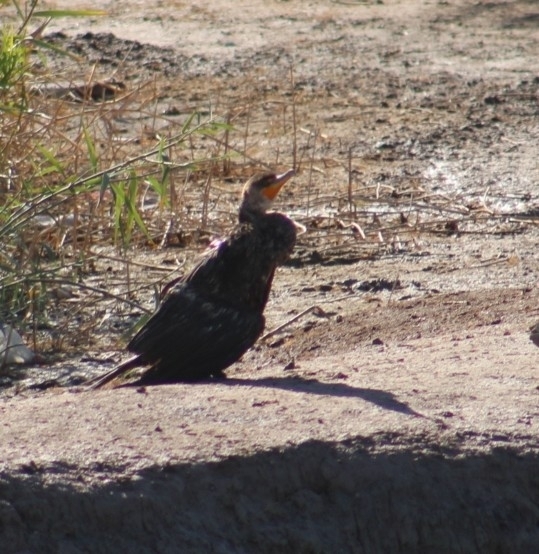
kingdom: Animalia
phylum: Chordata
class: Aves
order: Suliformes
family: Phalacrocoracidae
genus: Phalacrocorax
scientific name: Phalacrocorax auritus
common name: Double-crested cormorant
